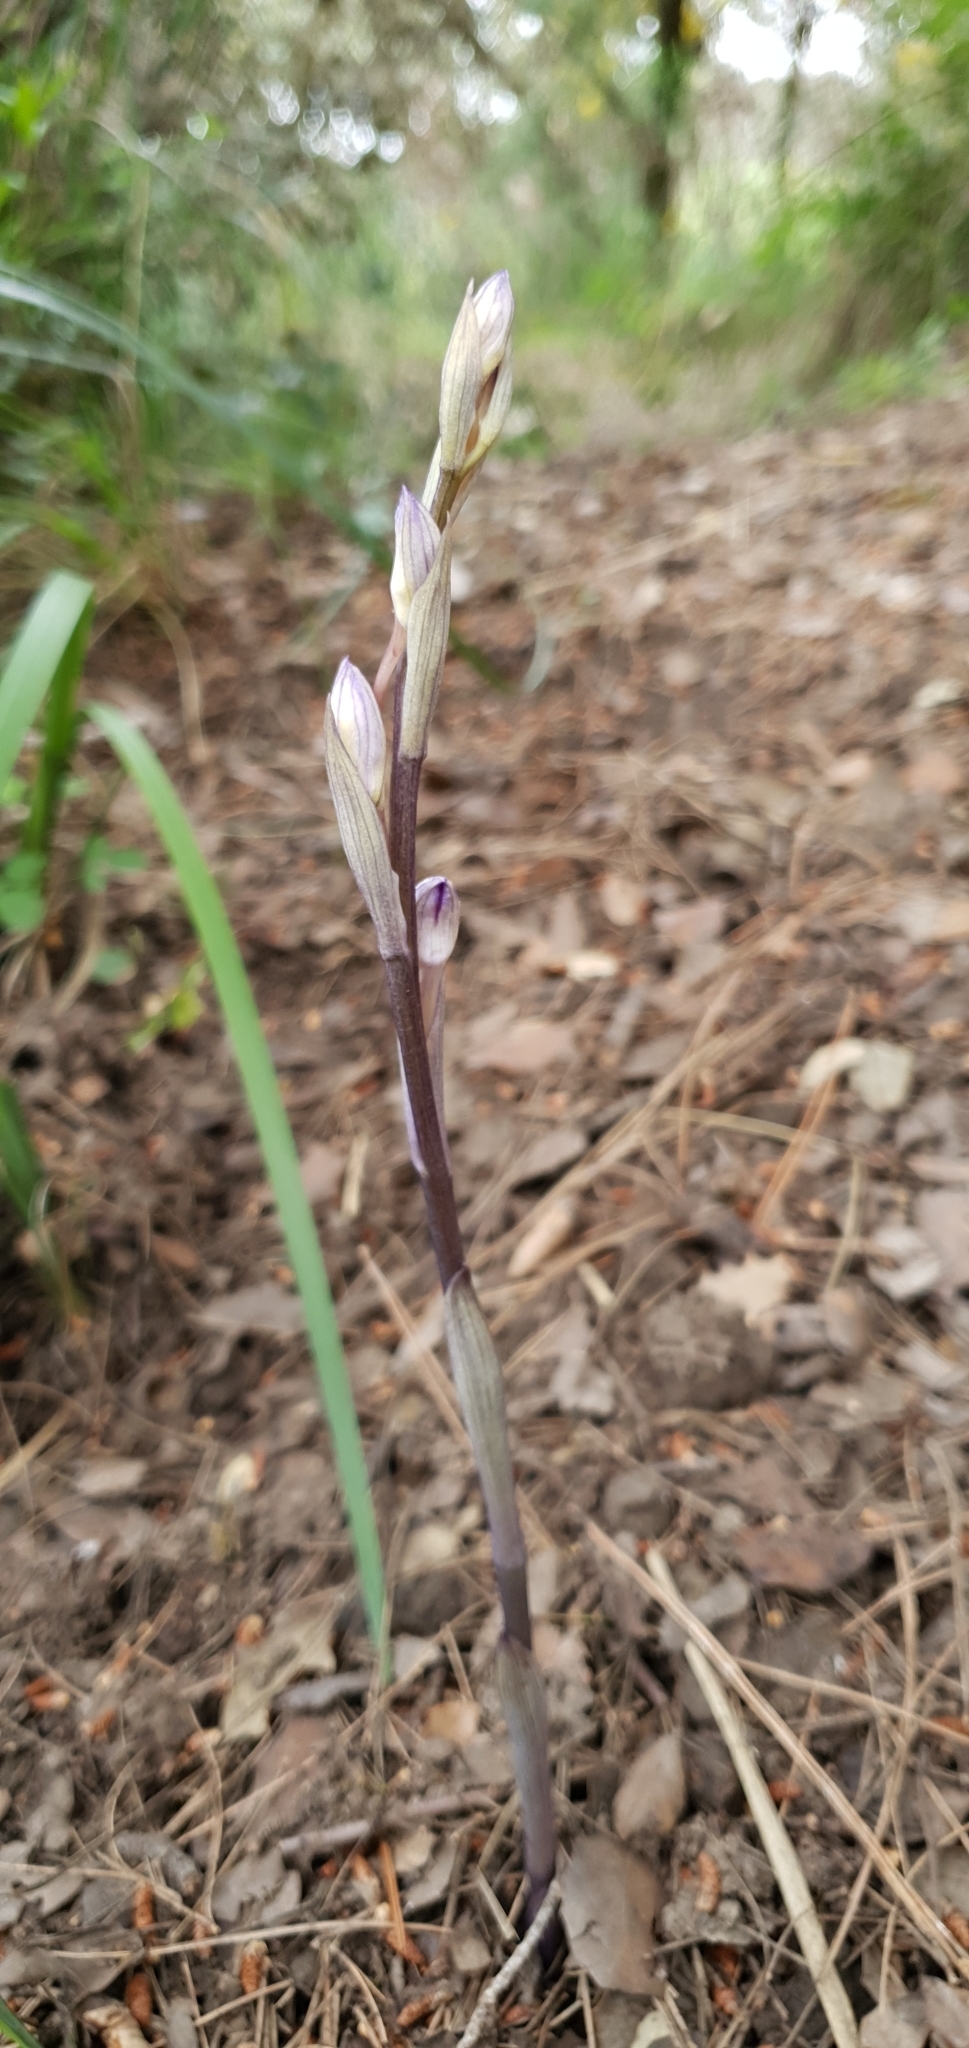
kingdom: Plantae
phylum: Tracheophyta
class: Liliopsida
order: Asparagales
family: Orchidaceae
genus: Limodorum
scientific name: Limodorum abortivum
